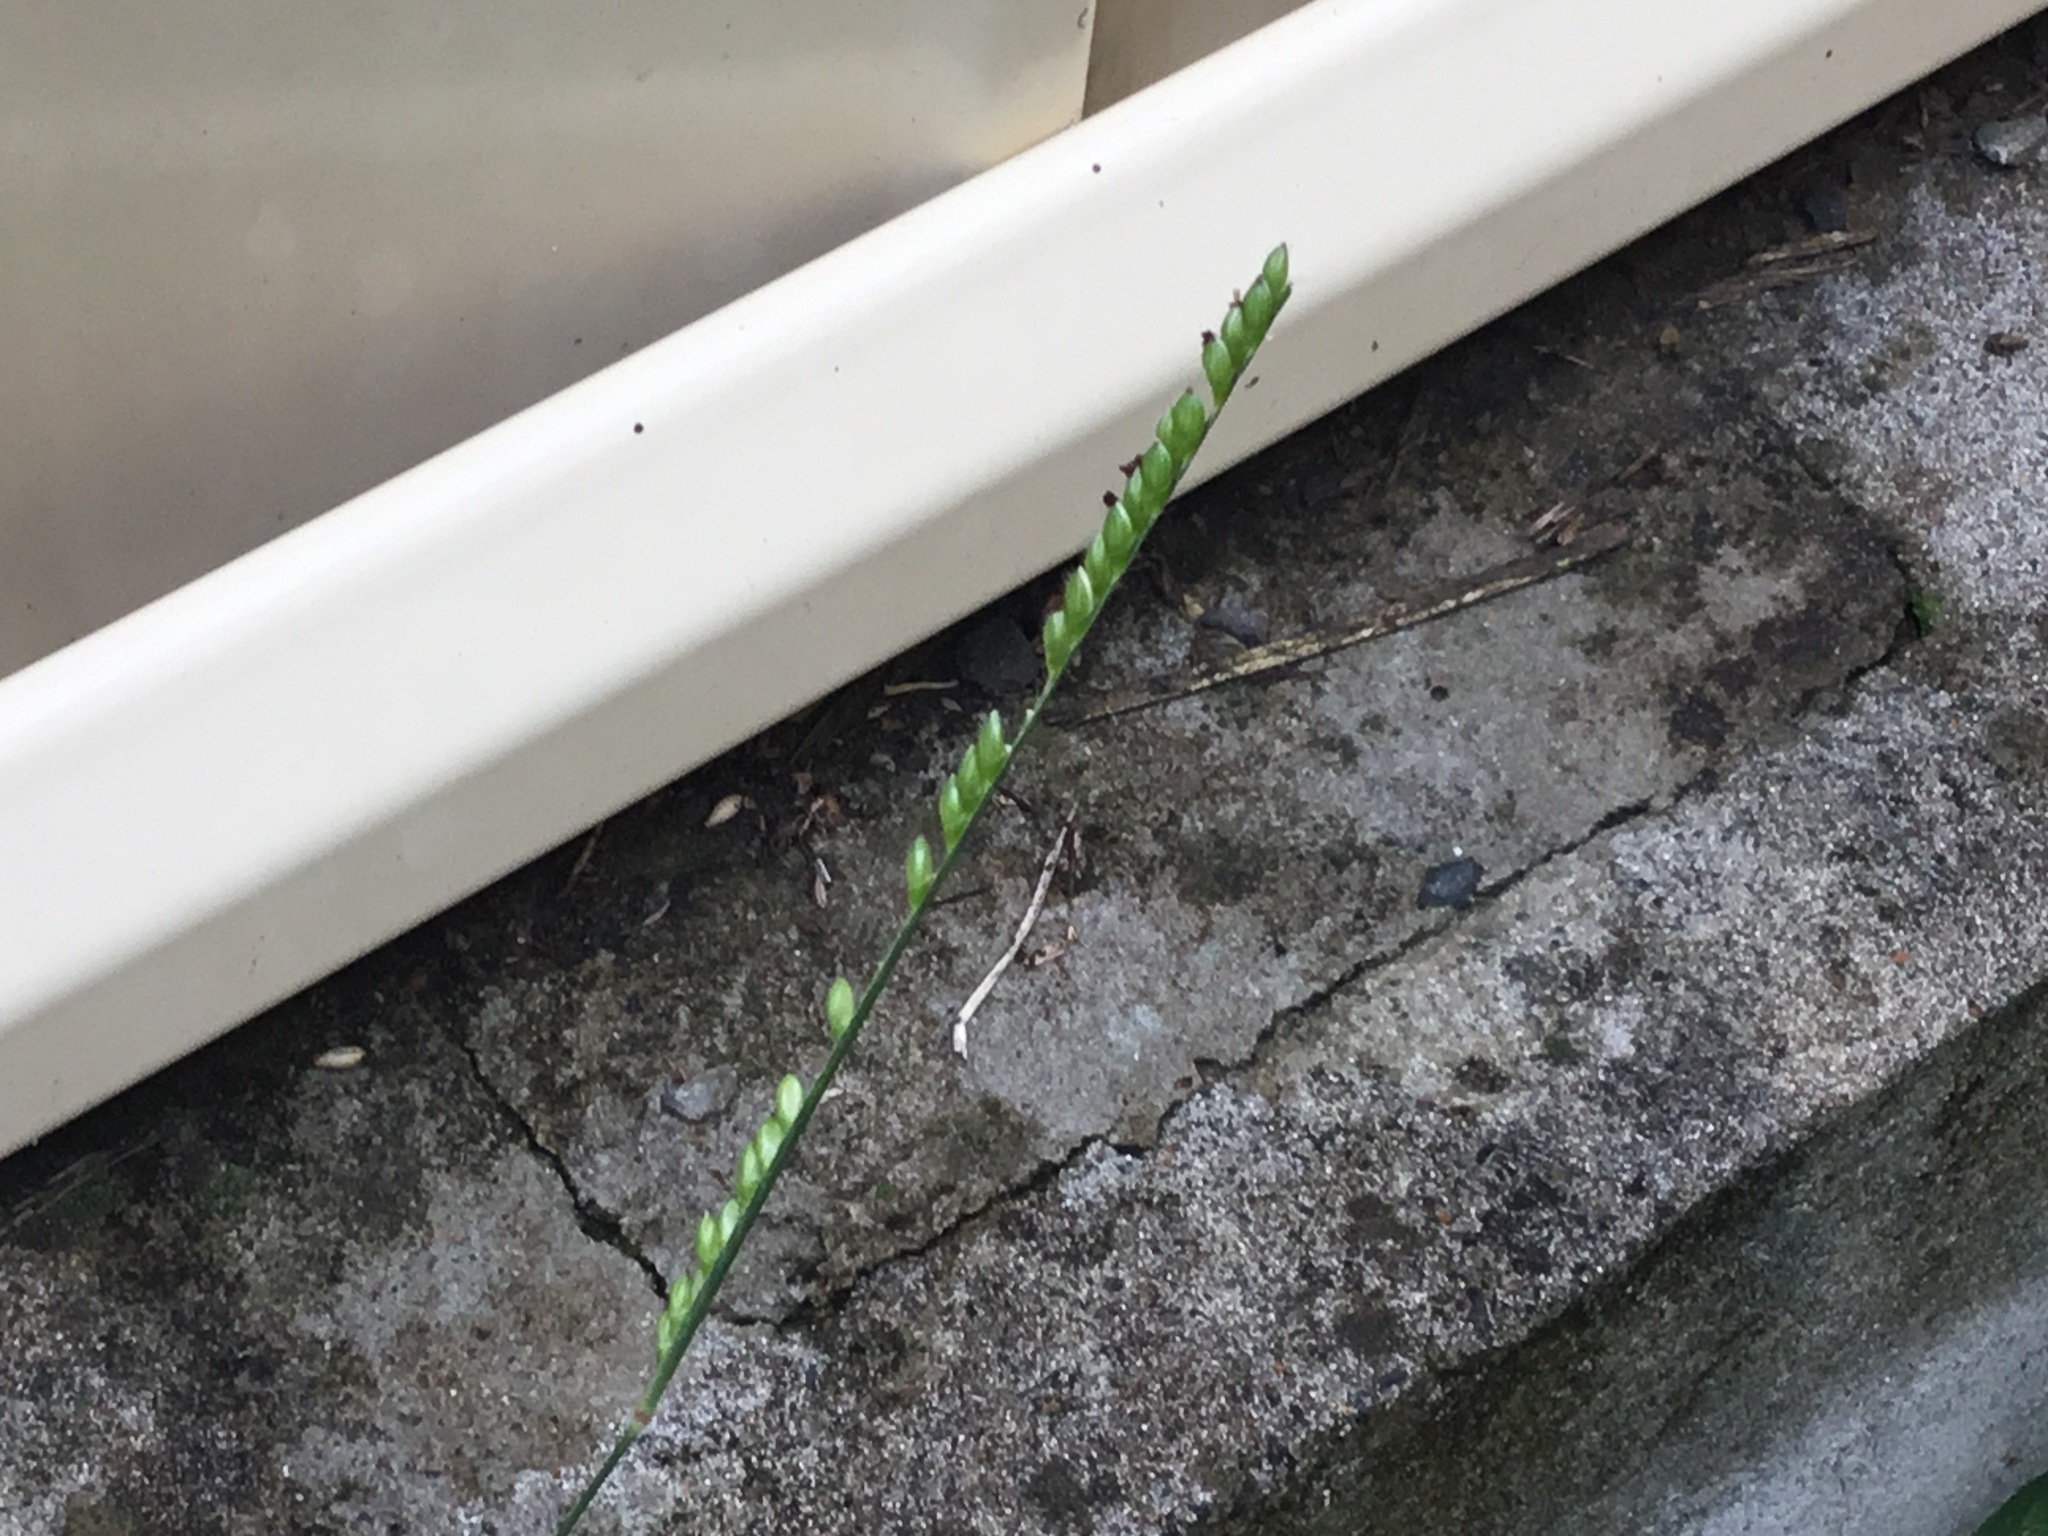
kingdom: Plantae
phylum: Tracheophyta
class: Liliopsida
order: Poales
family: Poaceae
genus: Urochloa
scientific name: Urochloa eminii
